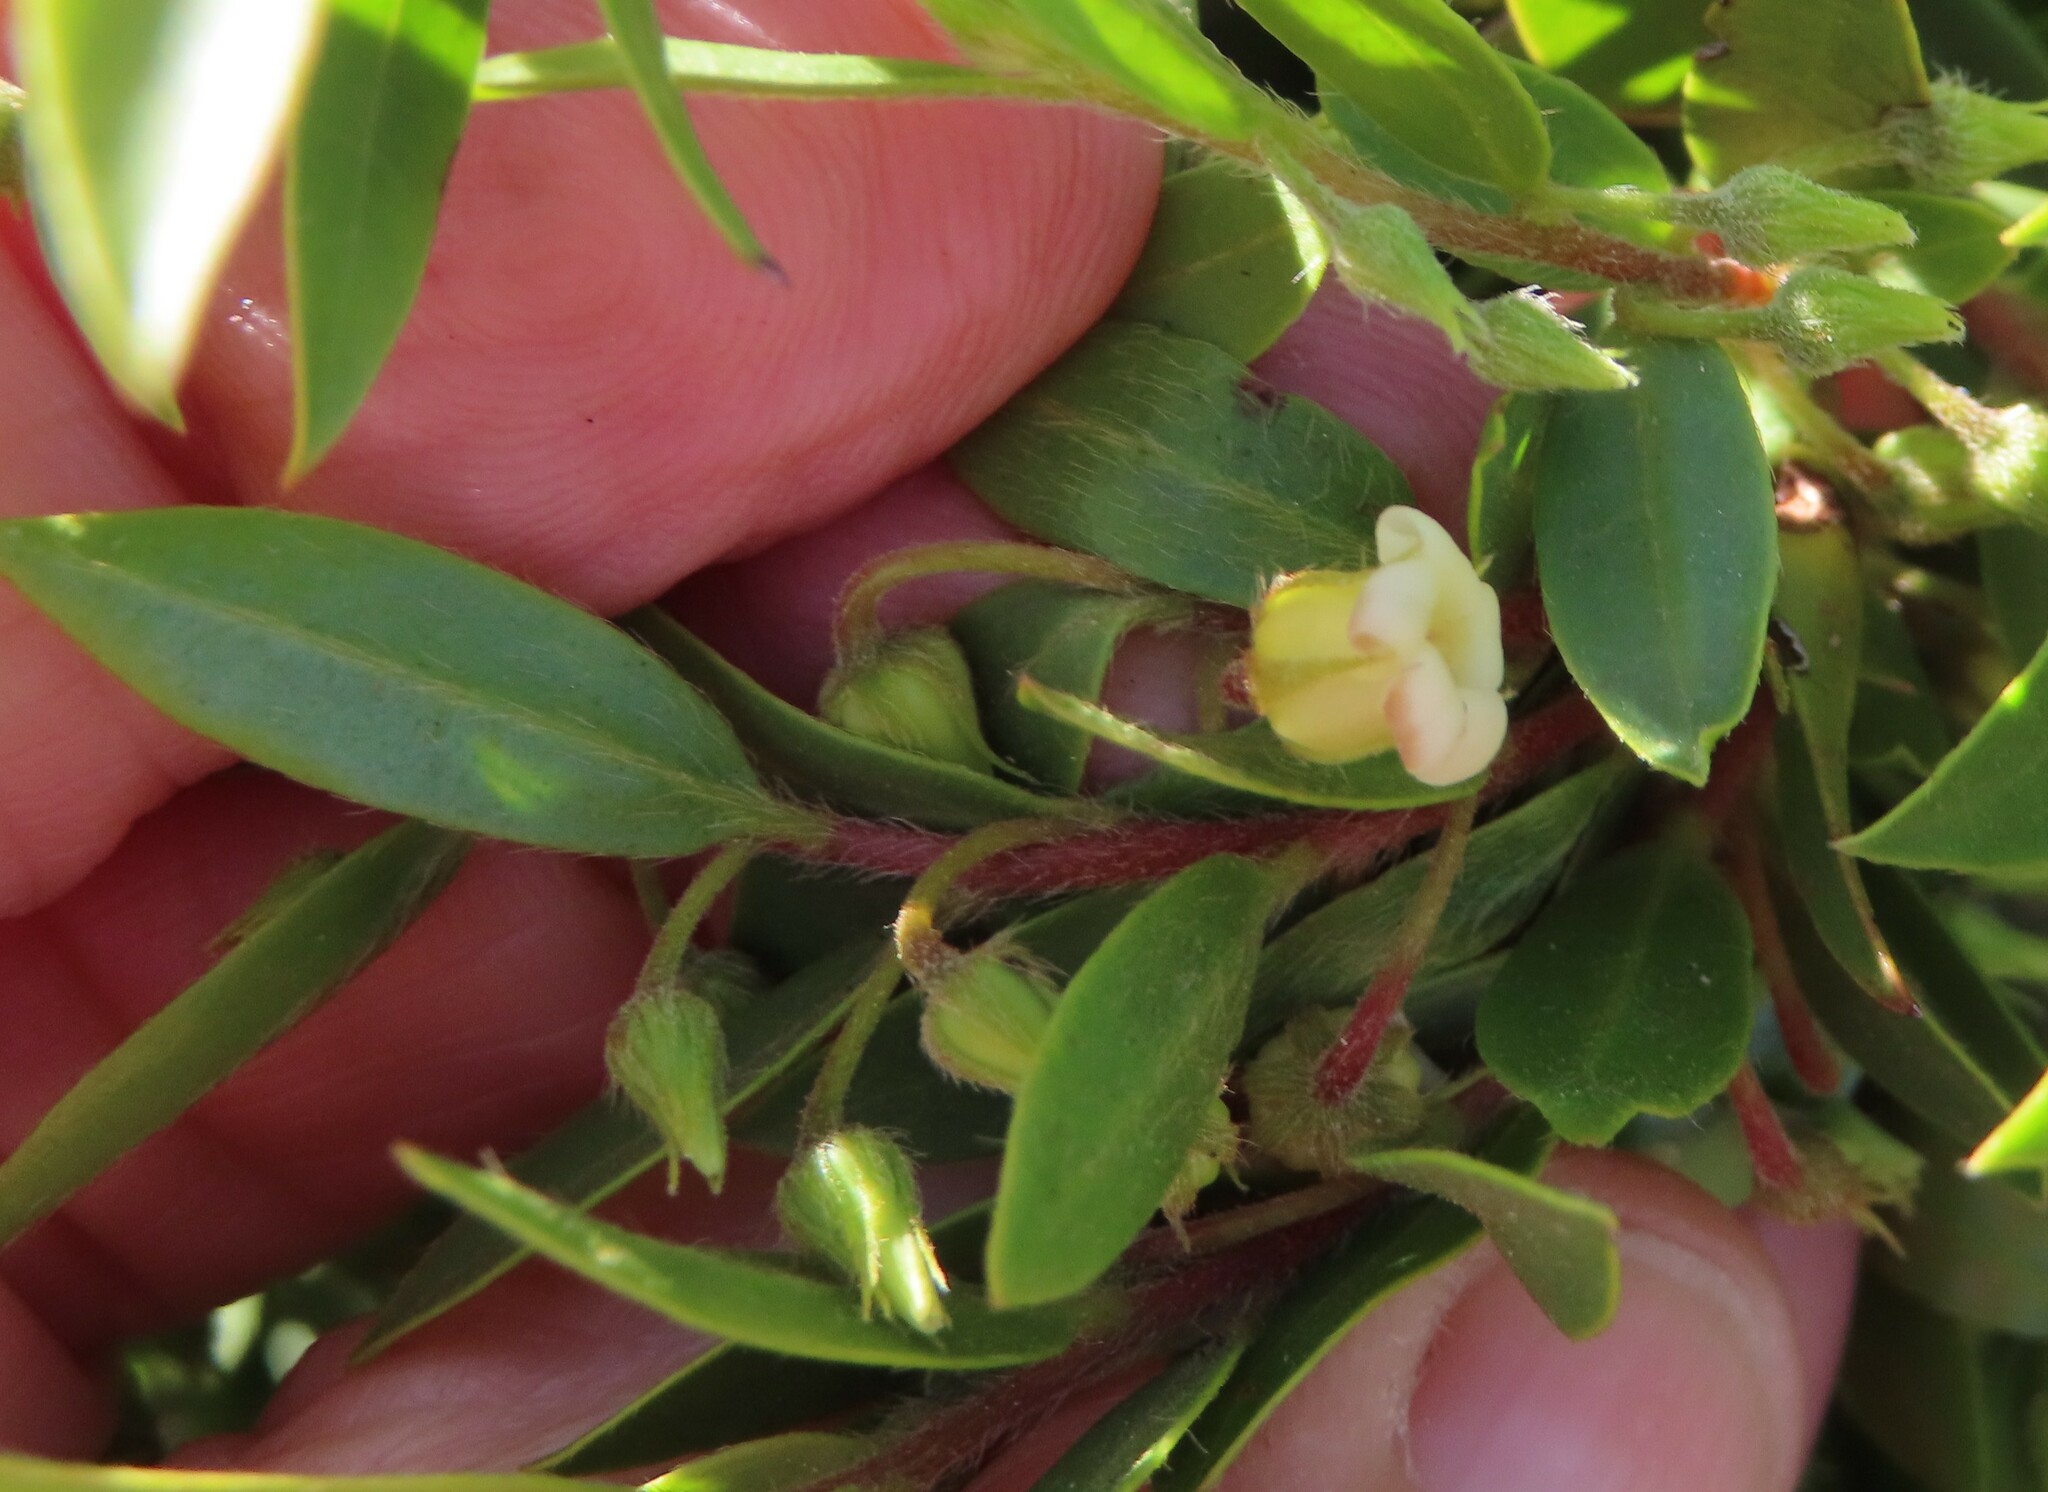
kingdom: Plantae
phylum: Tracheophyta
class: Magnoliopsida
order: Ericales
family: Ebenaceae
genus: Diospyros
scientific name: Diospyros glabra
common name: Fynbos star apple
